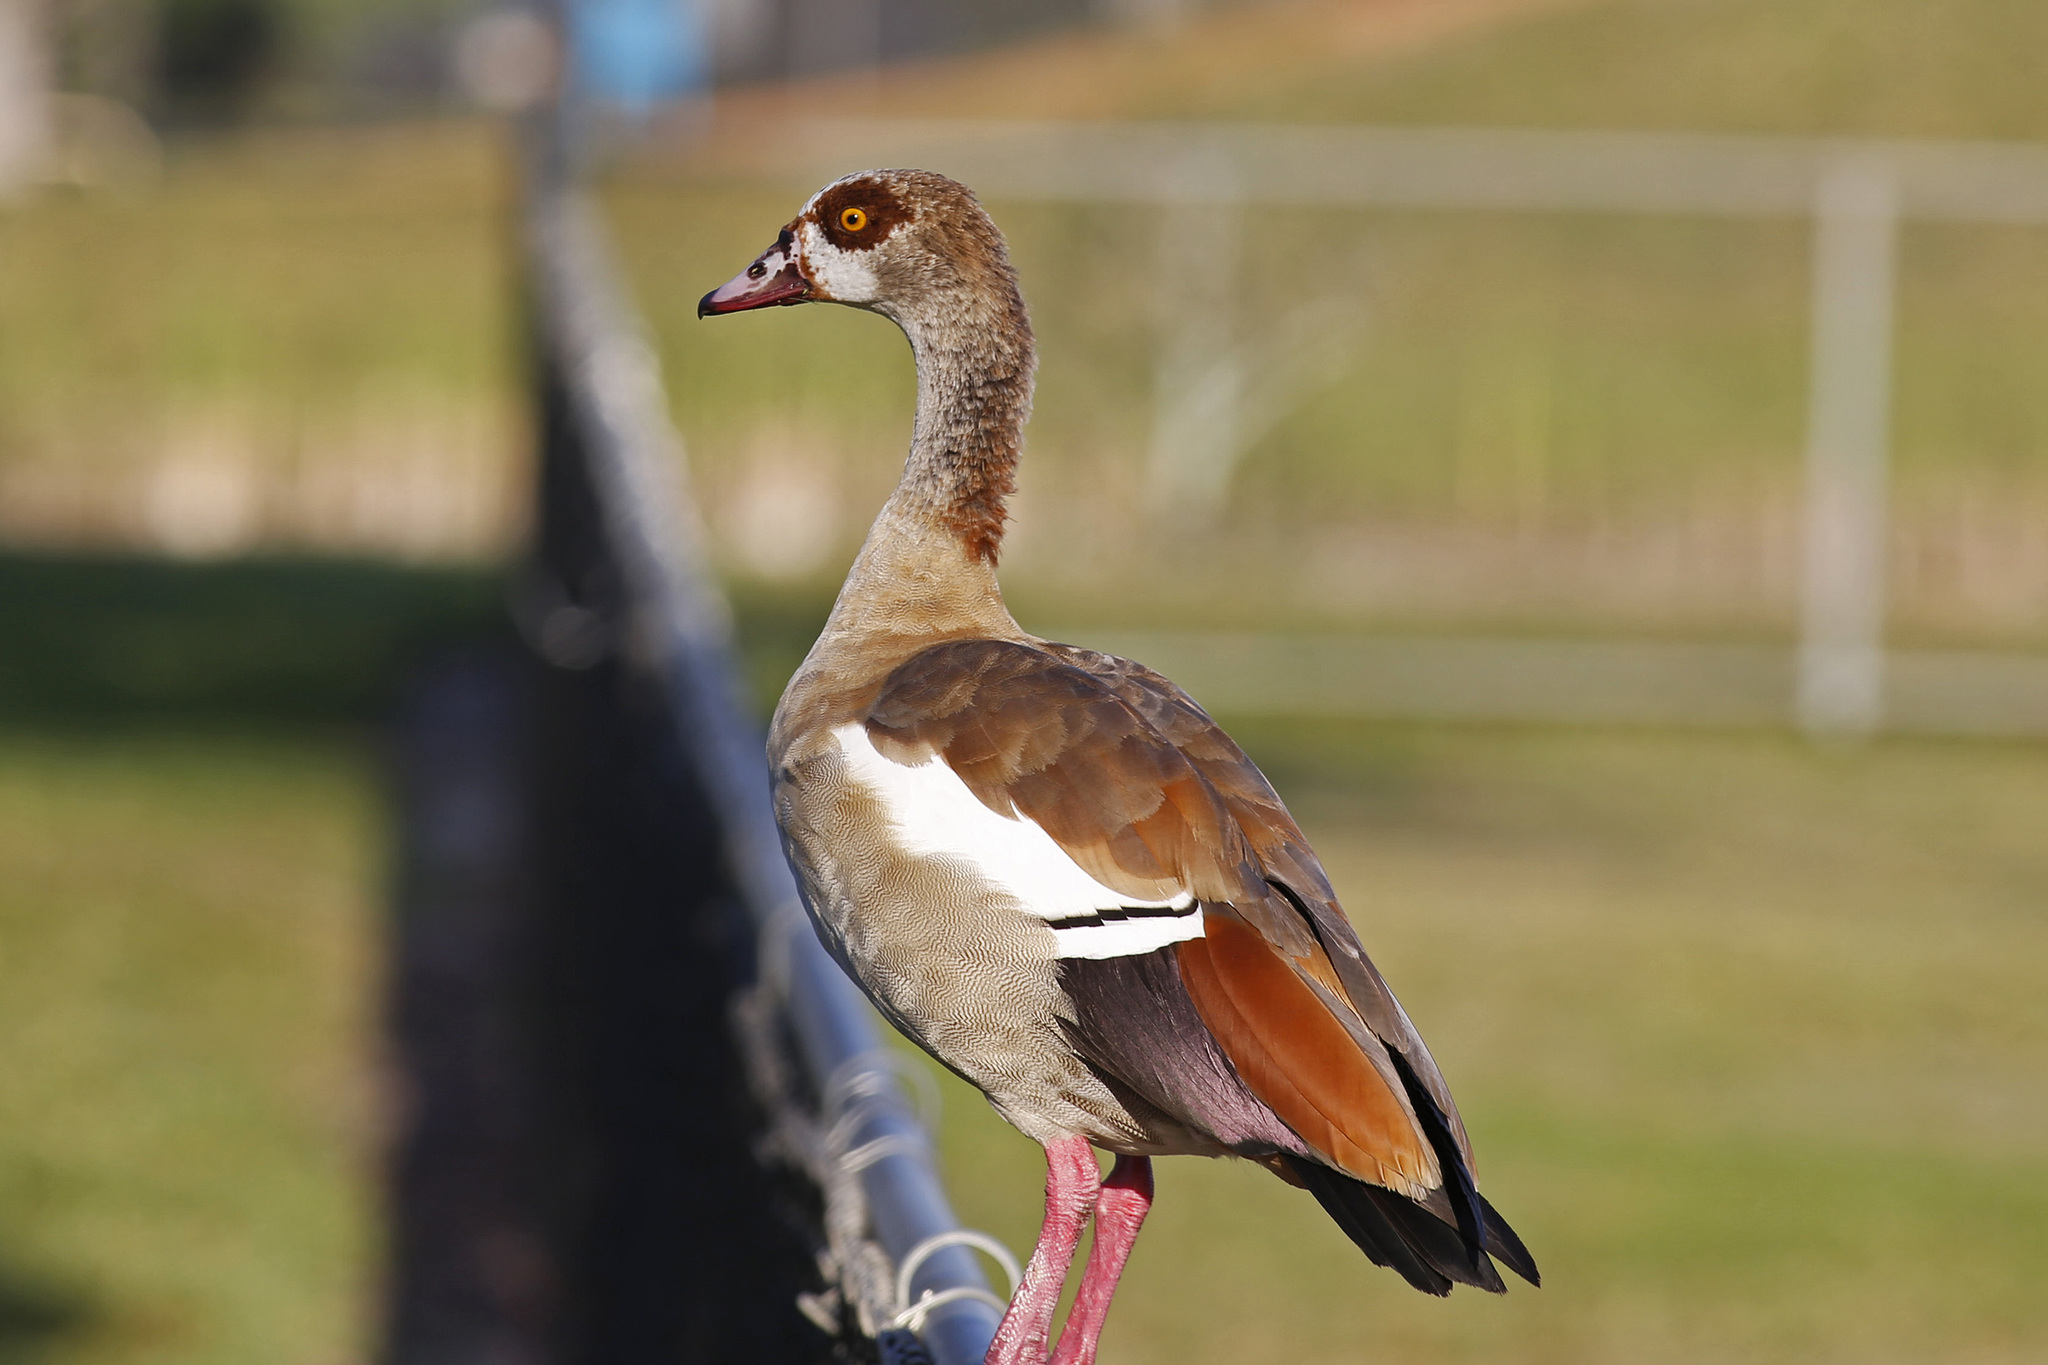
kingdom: Animalia
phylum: Chordata
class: Aves
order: Anseriformes
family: Anatidae
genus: Alopochen
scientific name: Alopochen aegyptiaca
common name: Egyptian goose
